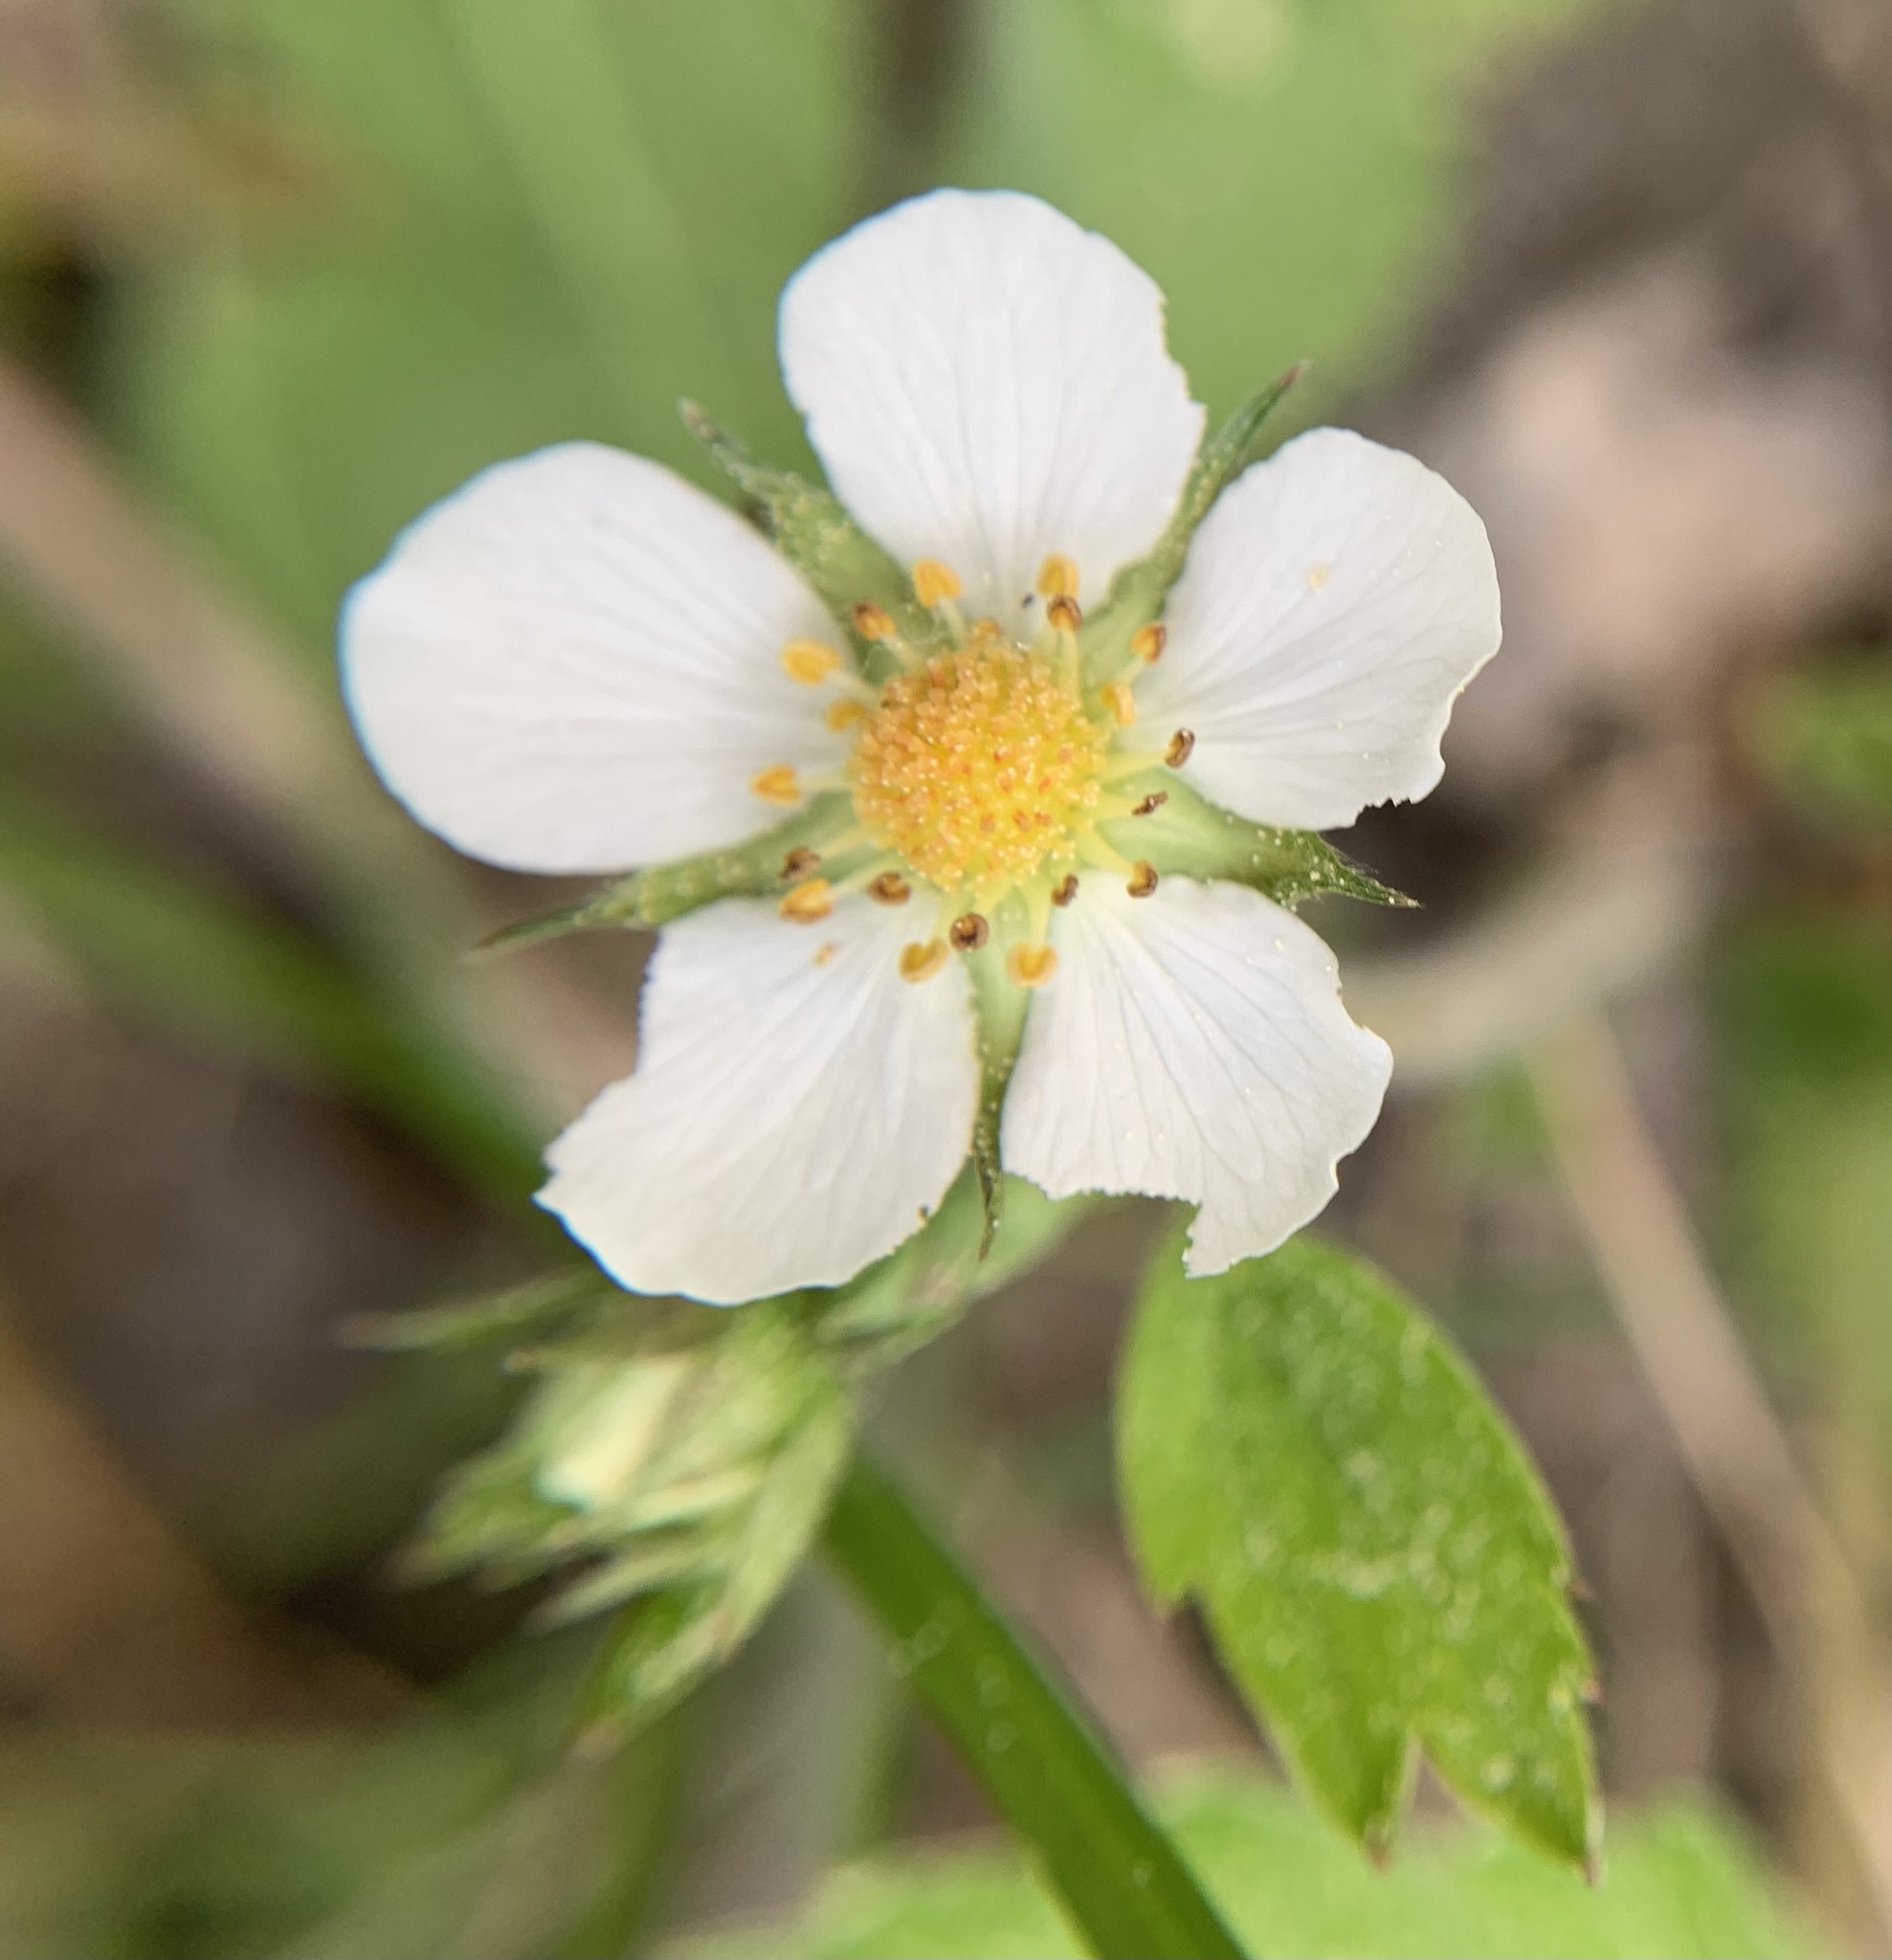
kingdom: Plantae
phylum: Tracheophyta
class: Magnoliopsida
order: Rosales
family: Rosaceae
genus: Fragaria
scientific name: Fragaria vesca
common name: Wild strawberry
